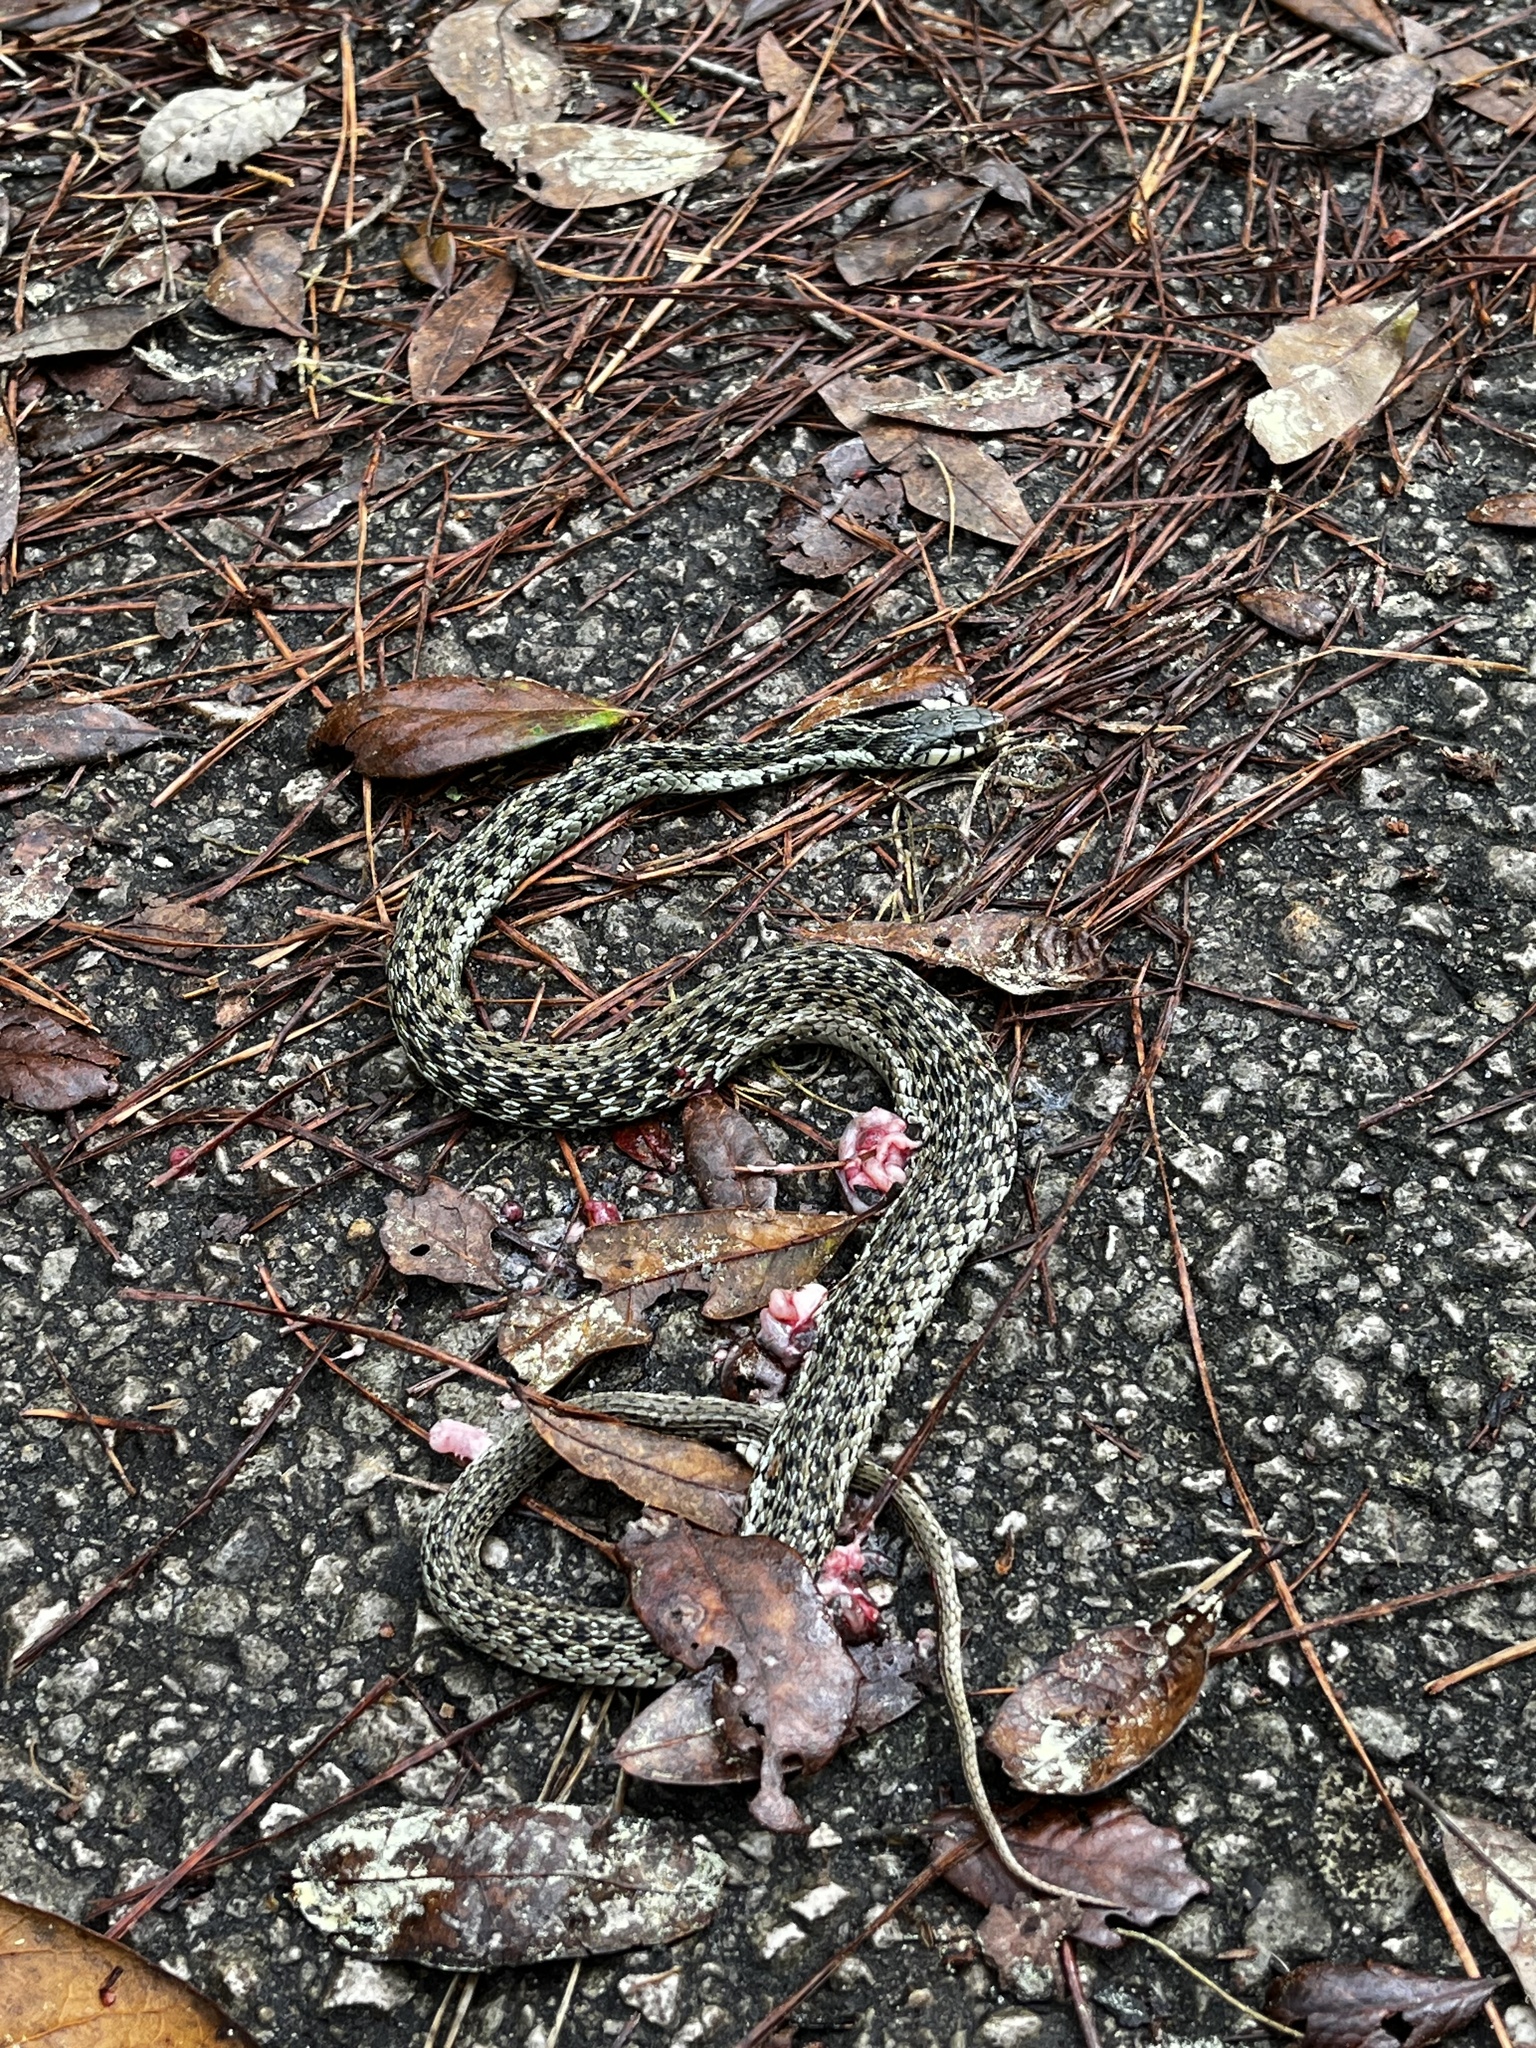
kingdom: Animalia
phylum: Chordata
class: Squamata
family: Colubridae
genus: Thamnophis
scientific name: Thamnophis sirtalis
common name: Common garter snake
